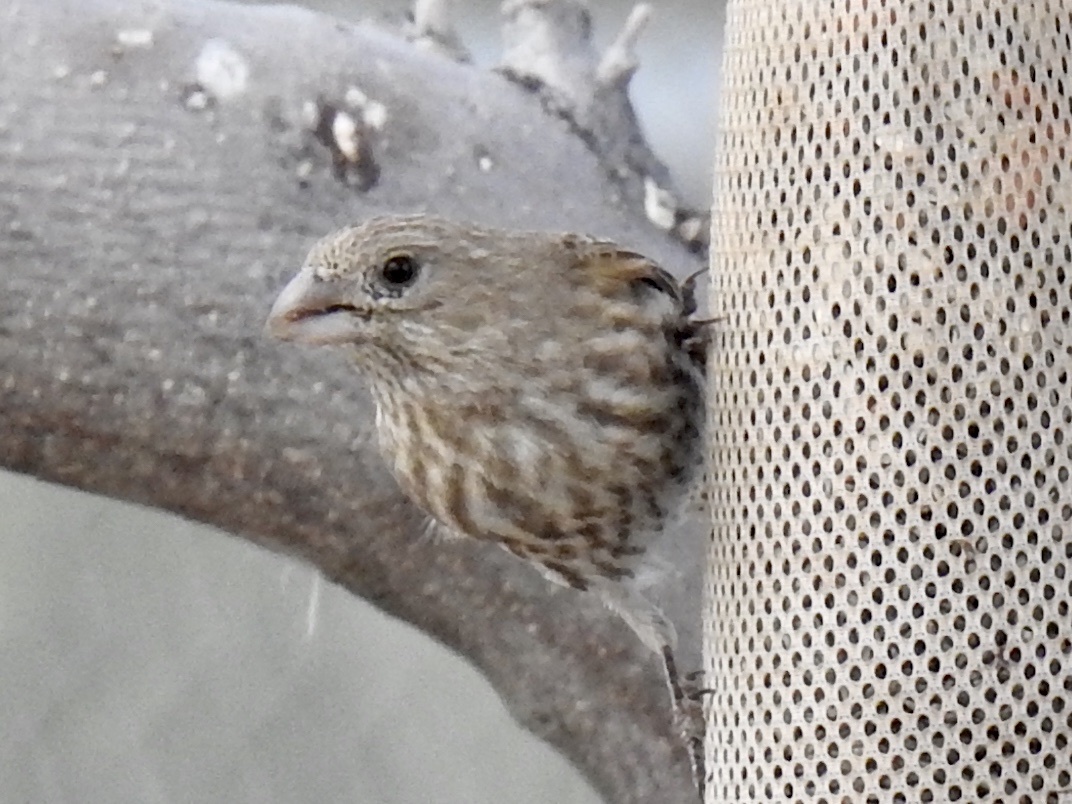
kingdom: Animalia
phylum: Chordata
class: Aves
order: Passeriformes
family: Fringillidae
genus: Haemorhous
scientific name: Haemorhous mexicanus
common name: House finch
